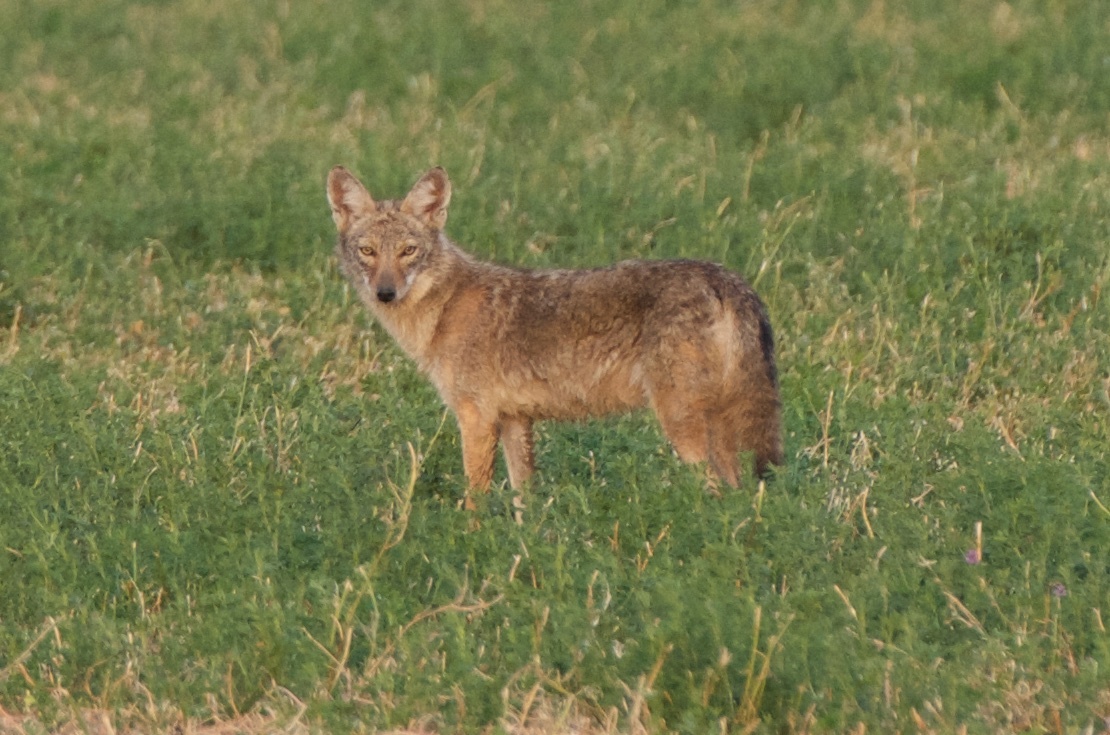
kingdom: Animalia
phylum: Chordata
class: Mammalia
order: Carnivora
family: Canidae
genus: Canis
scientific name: Canis latrans
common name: Coyote
